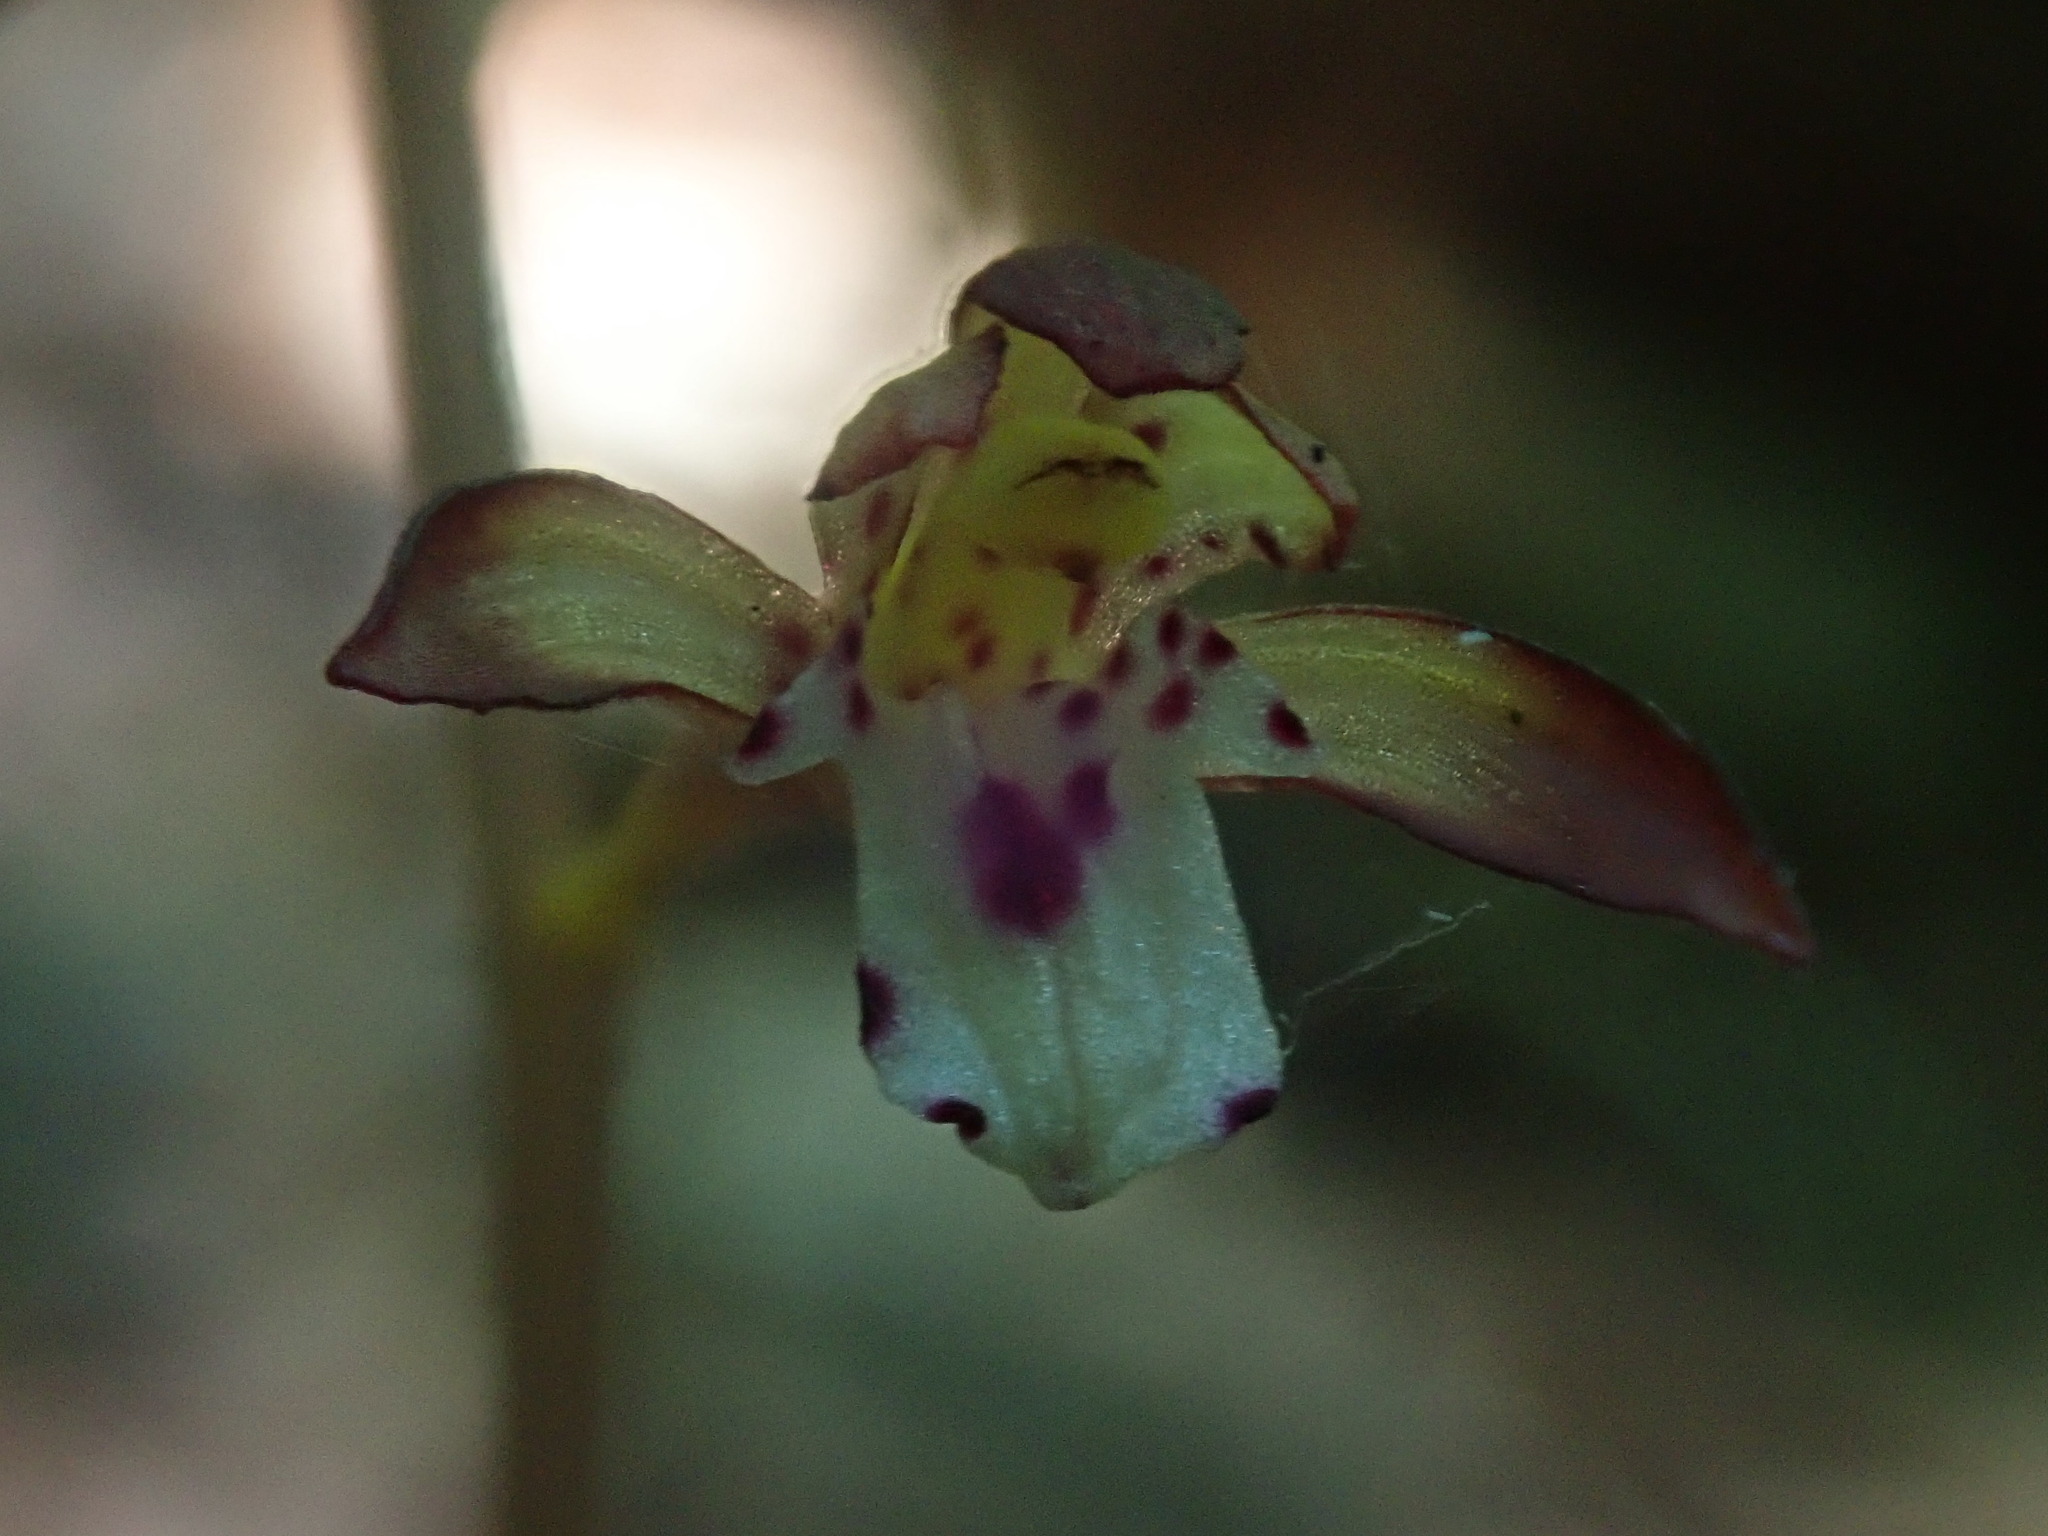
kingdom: Plantae
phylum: Tracheophyta
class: Liliopsida
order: Asparagales
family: Orchidaceae
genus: Corallorhiza
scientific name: Corallorhiza maculata
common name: Spotted coralroot
